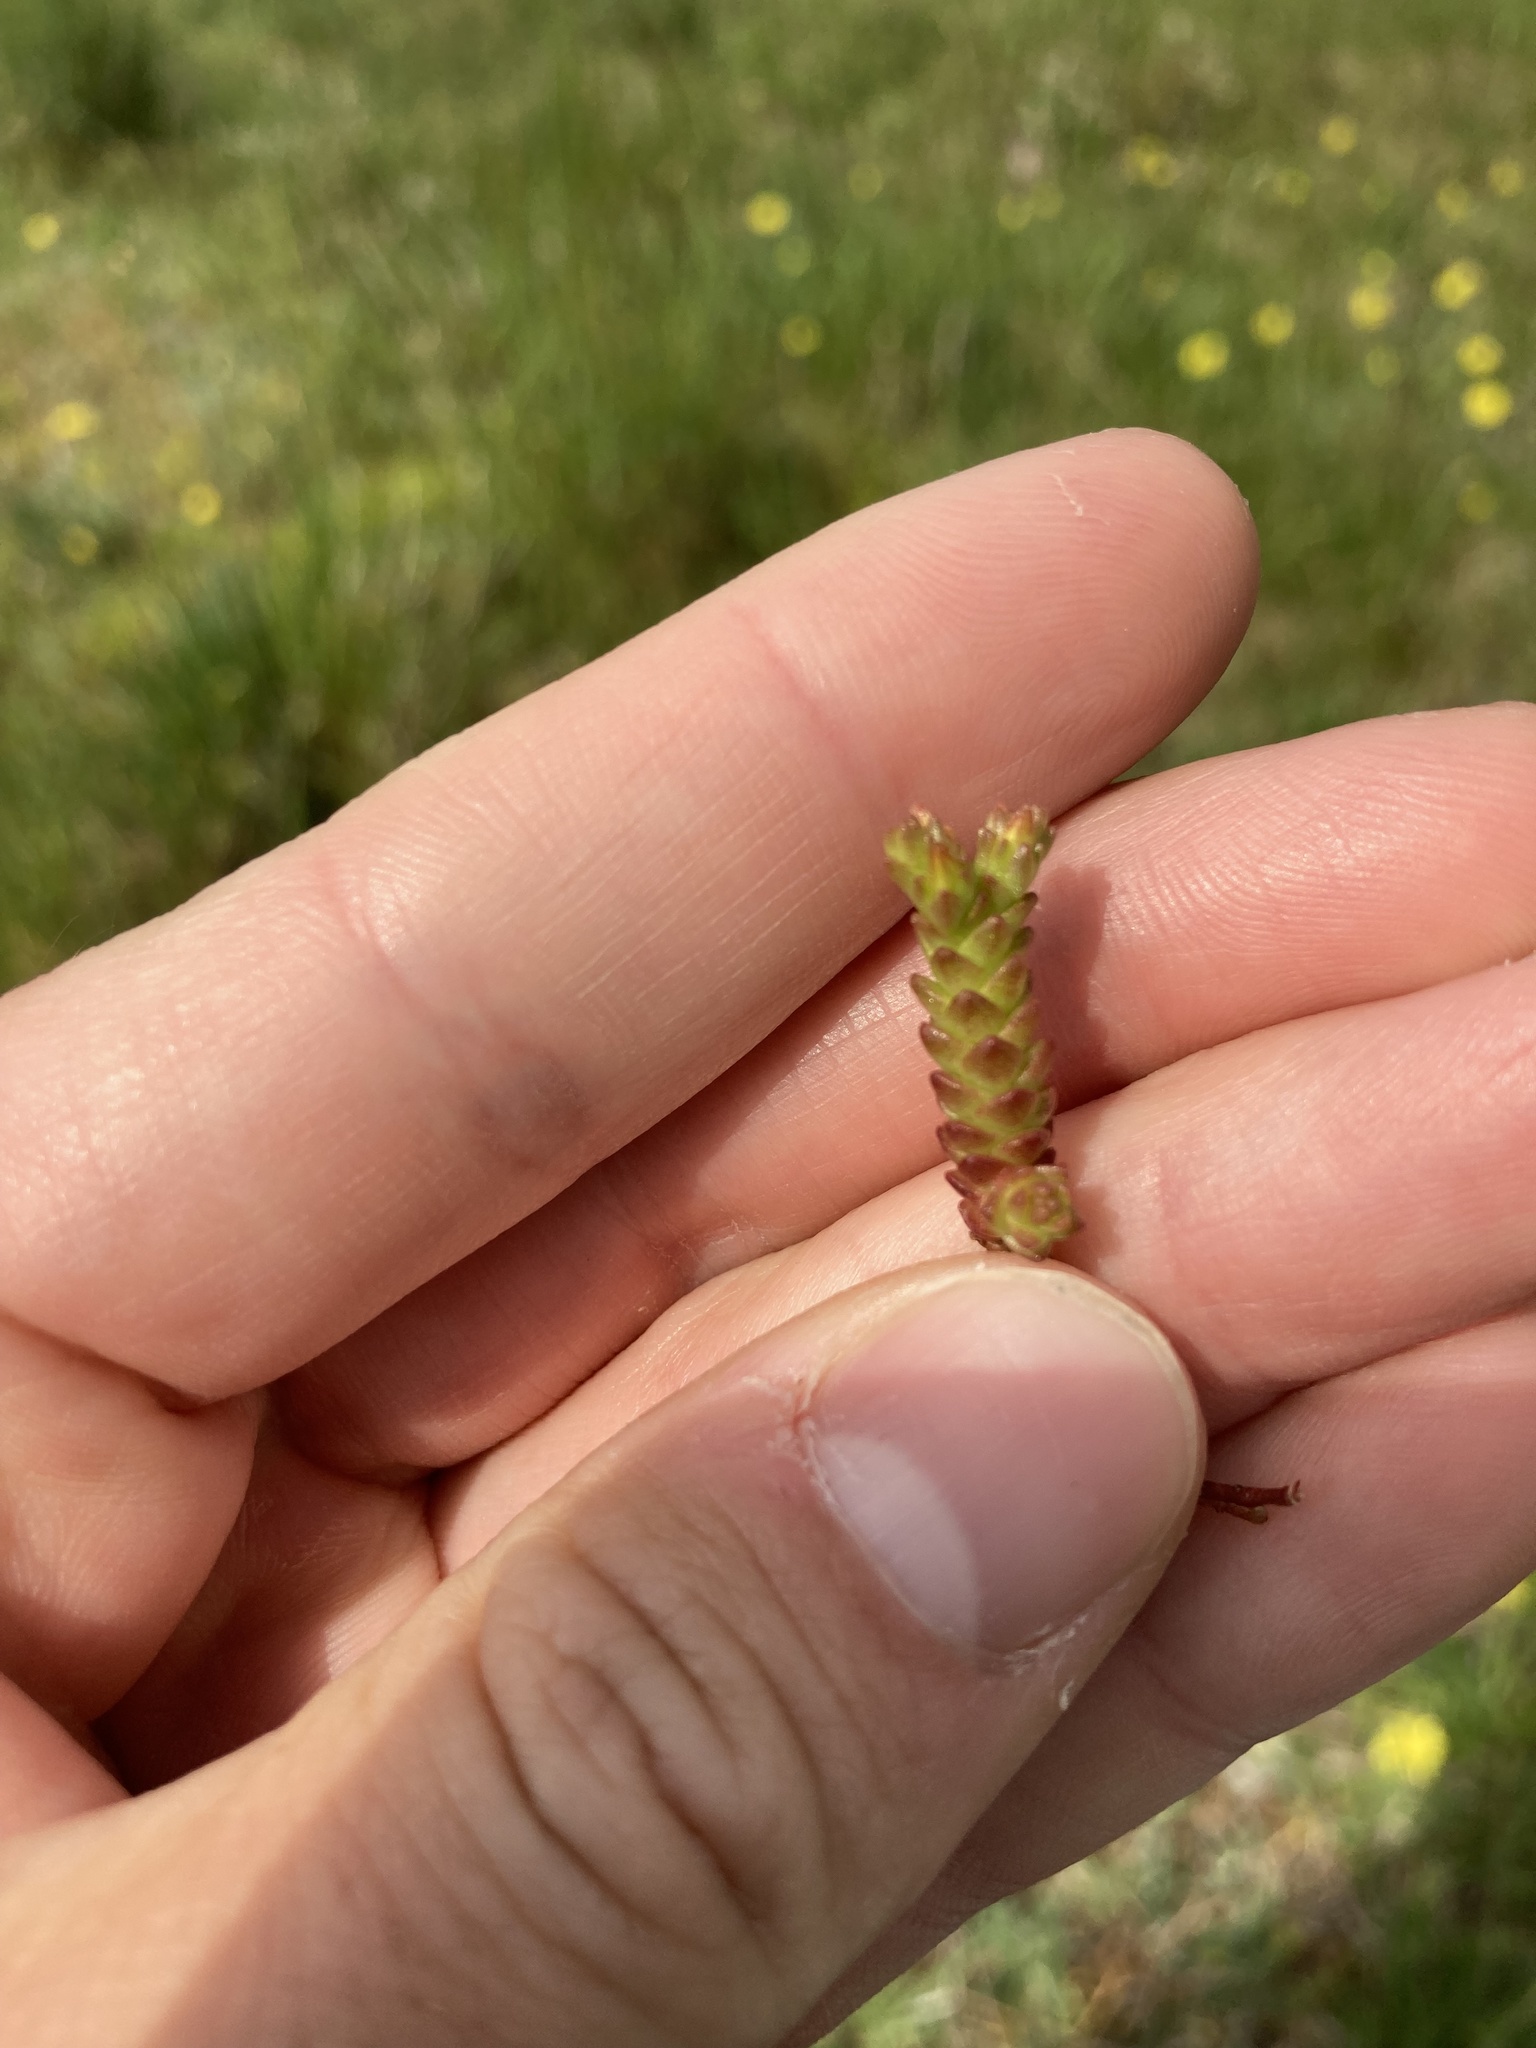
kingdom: Plantae
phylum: Tracheophyta
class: Magnoliopsida
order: Saxifragales
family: Crassulaceae
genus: Sedum
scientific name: Sedum acre
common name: Biting stonecrop
